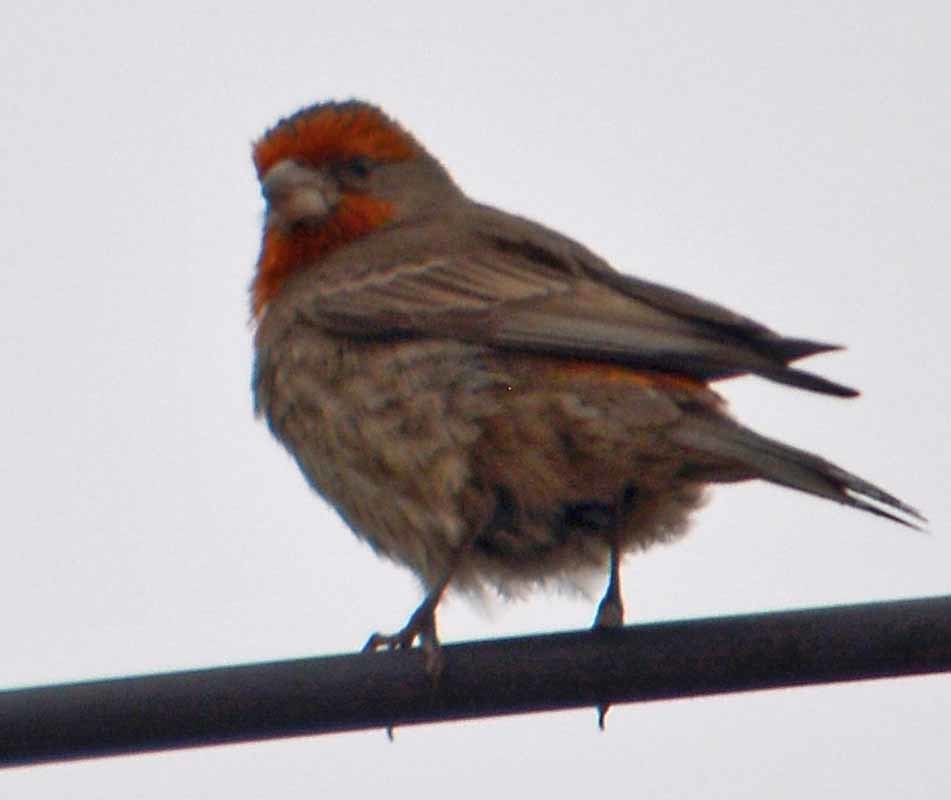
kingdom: Animalia
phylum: Chordata
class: Aves
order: Passeriformes
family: Fringillidae
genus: Haemorhous
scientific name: Haemorhous mexicanus
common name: House finch
